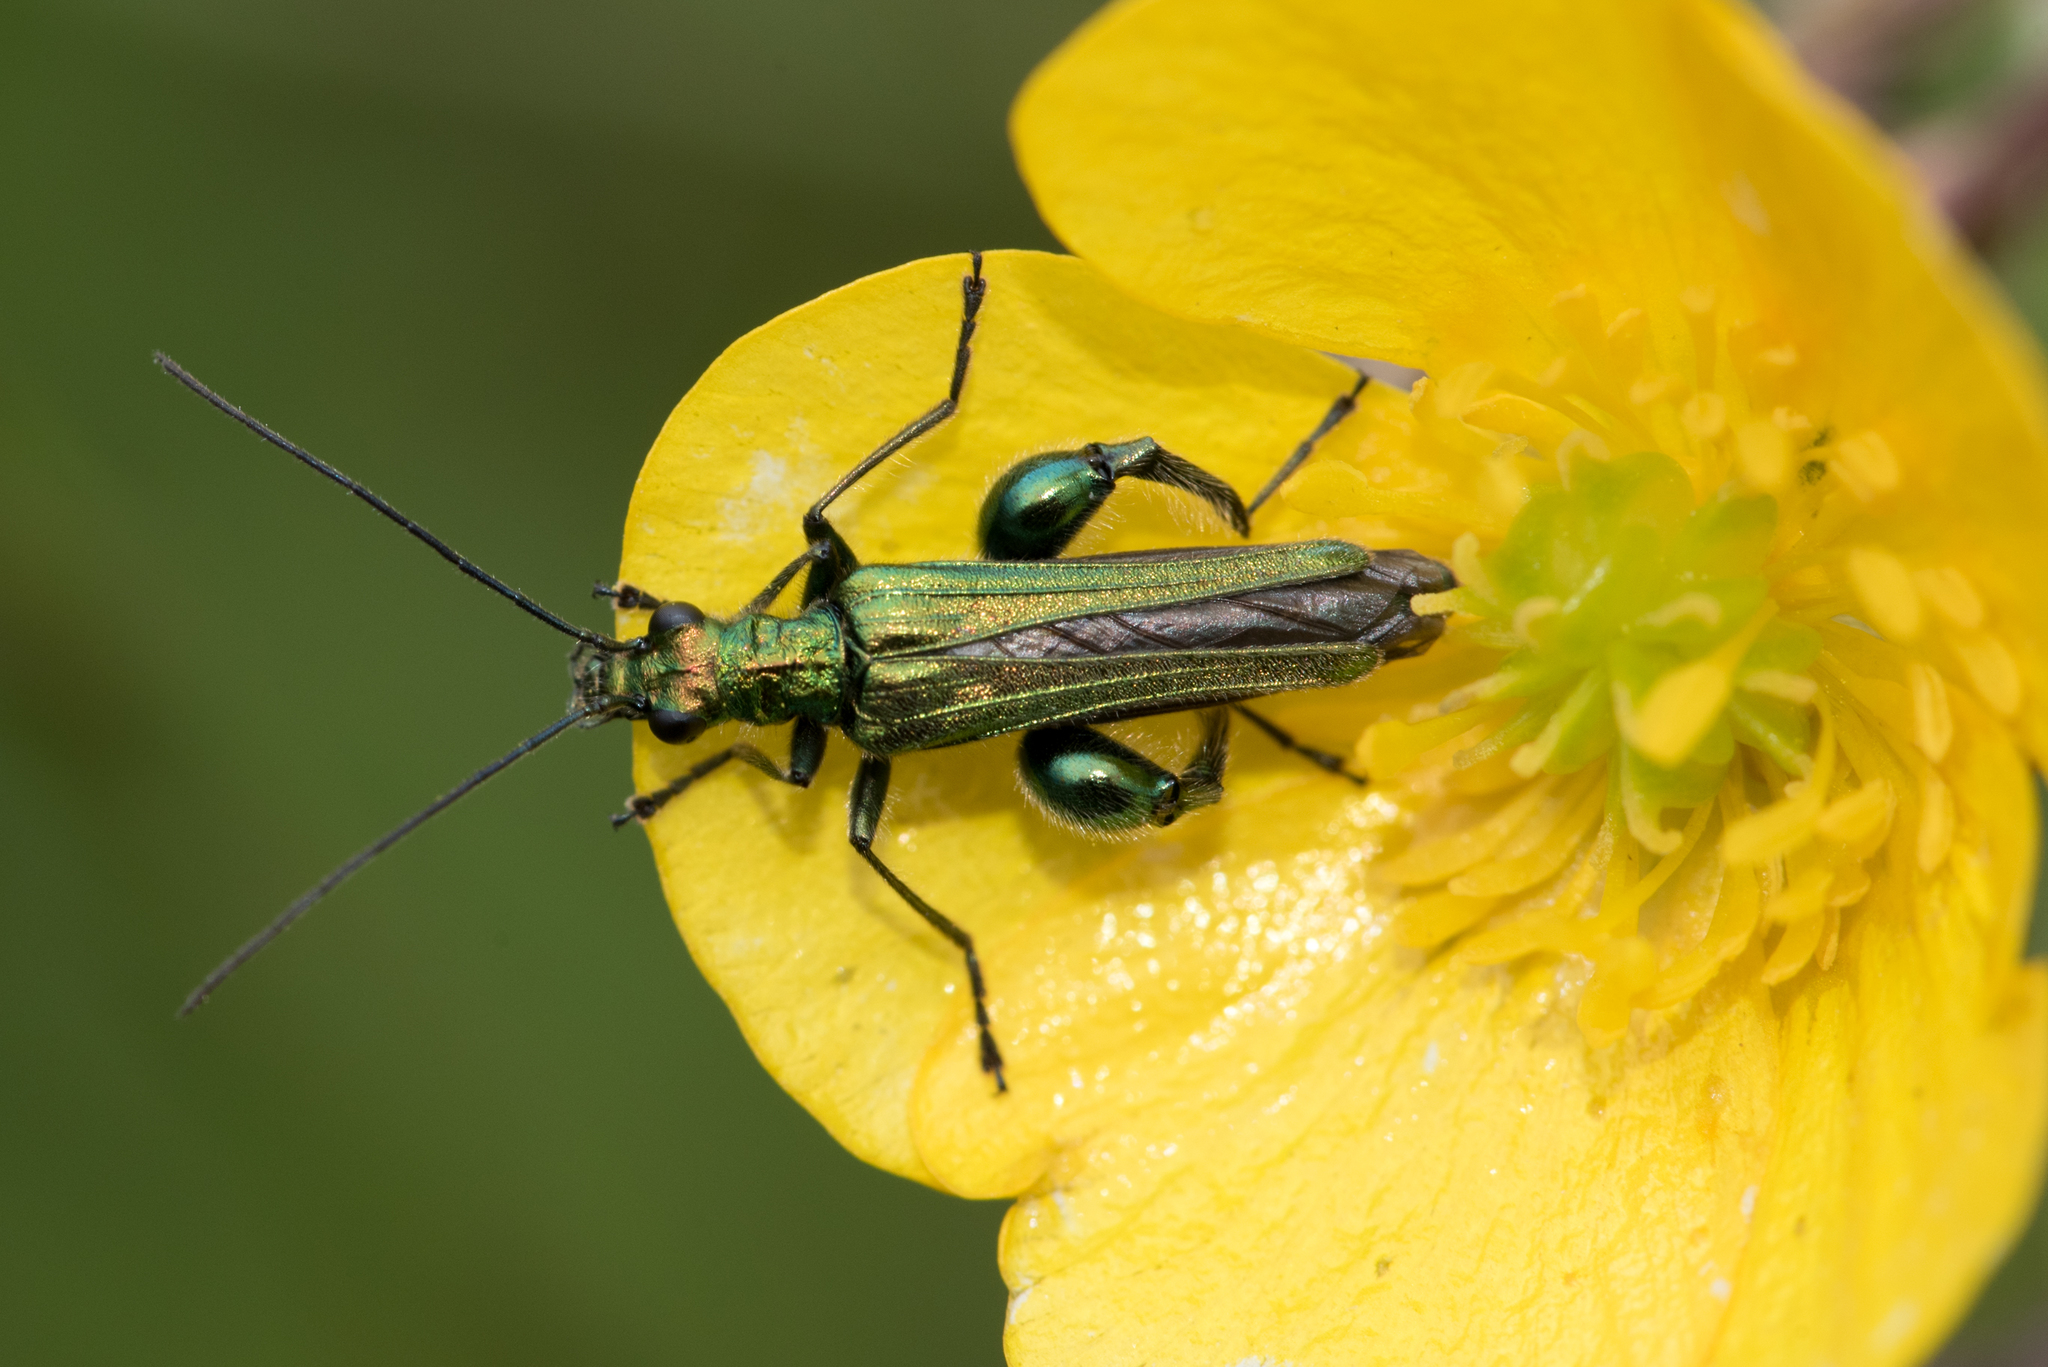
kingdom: Animalia
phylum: Arthropoda
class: Insecta
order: Coleoptera
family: Oedemeridae
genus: Oedemera
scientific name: Oedemera nobilis
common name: Swollen-thighed beetle
